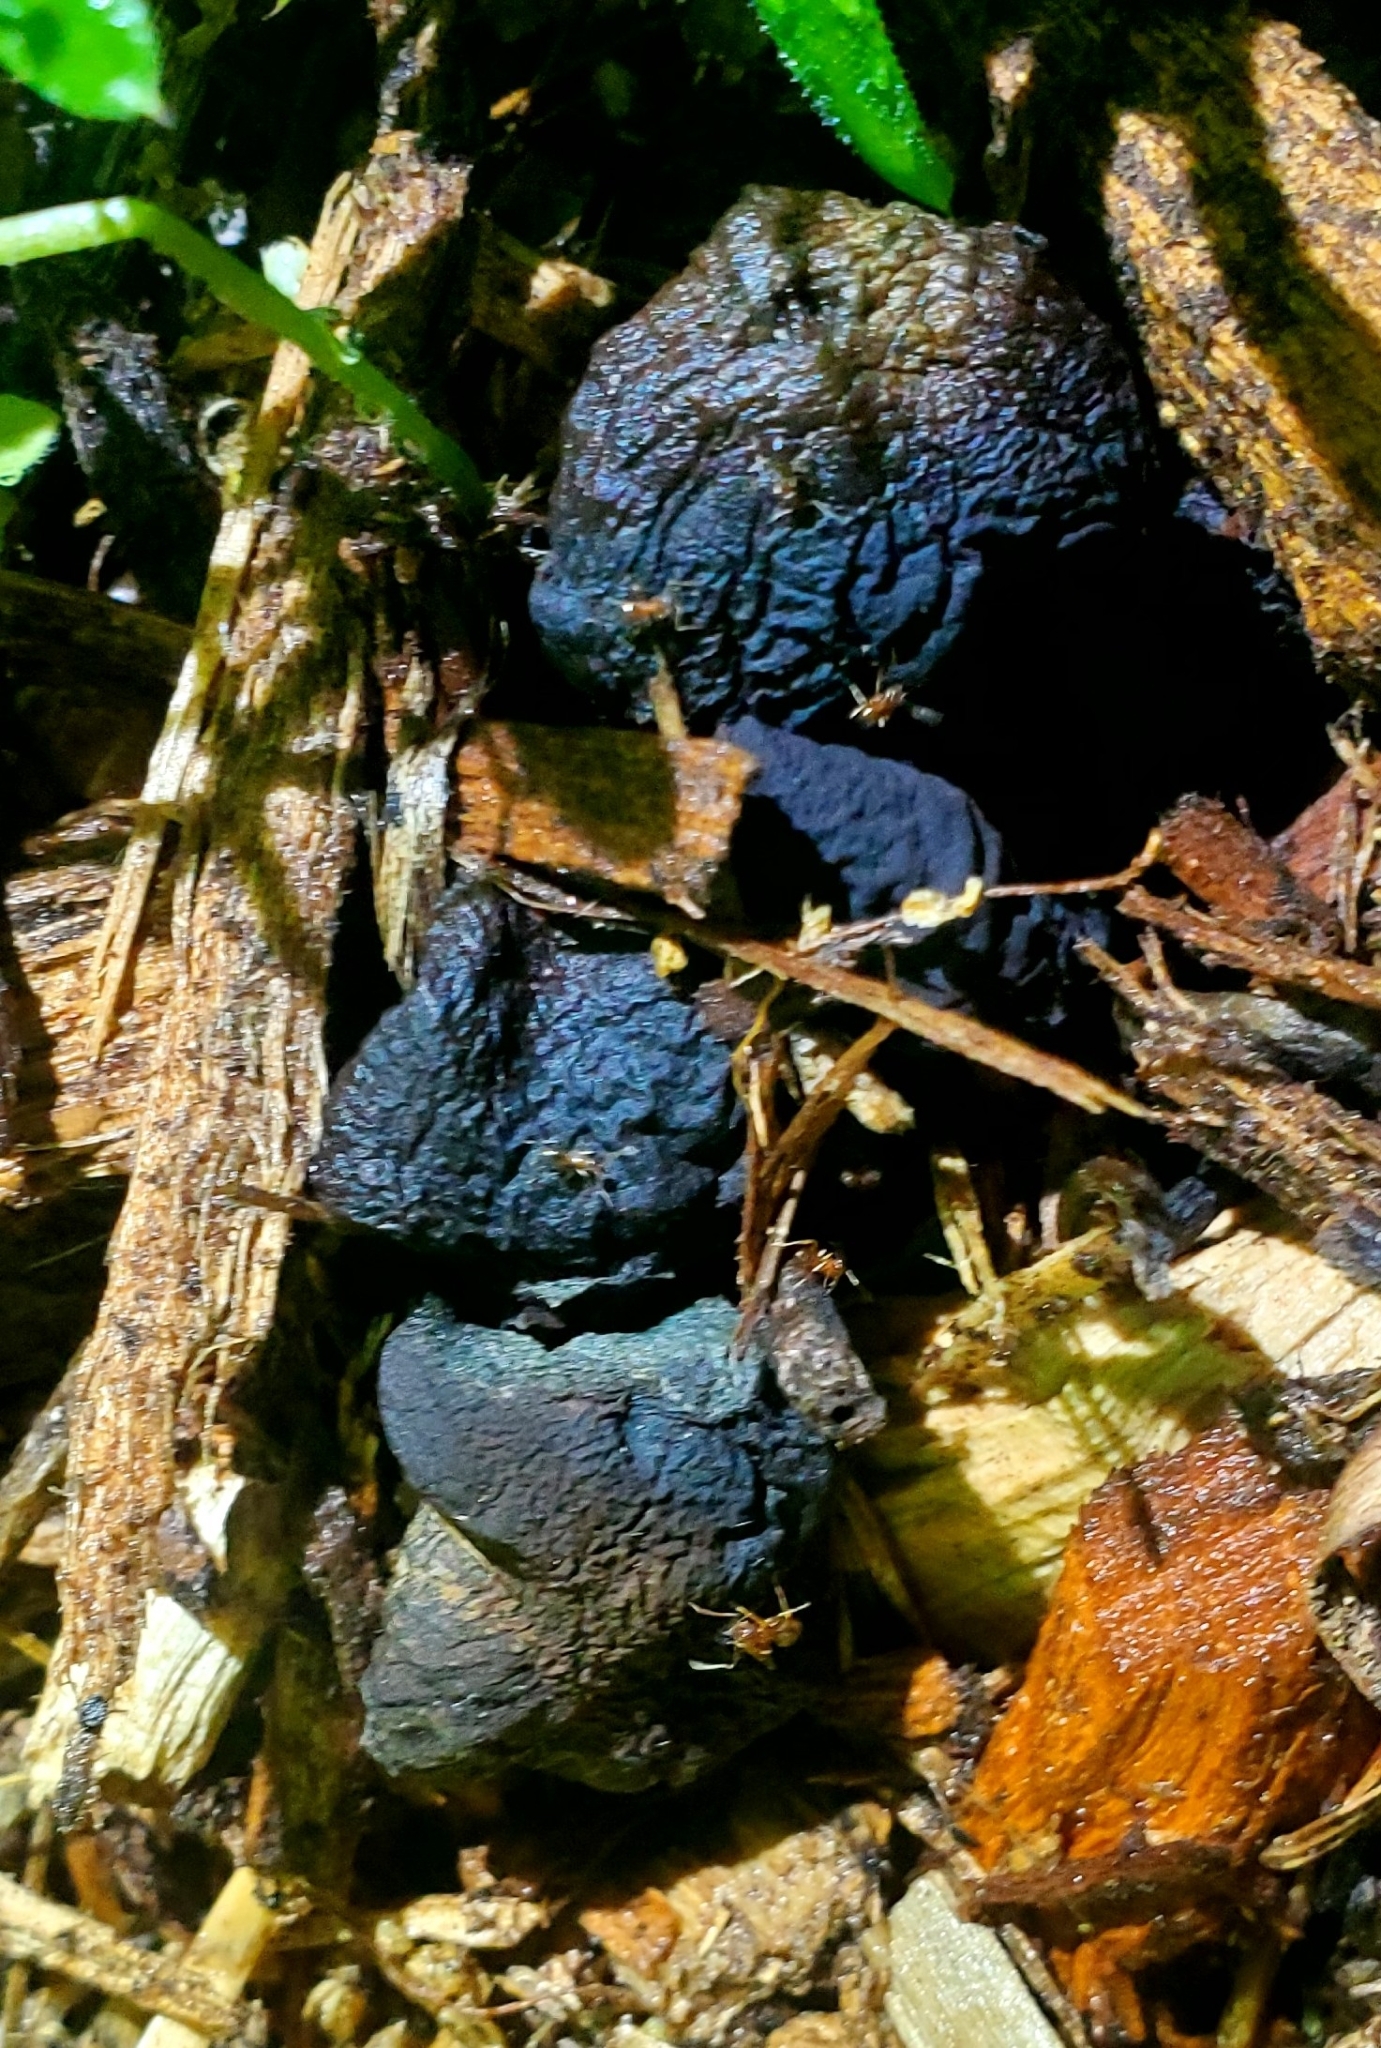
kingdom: Fungi
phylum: Basidiomycota
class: Agaricomycetes
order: Agaricales
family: Hymenogastraceae
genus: Psilocybe
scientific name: Psilocybe ovoideocystidiata
